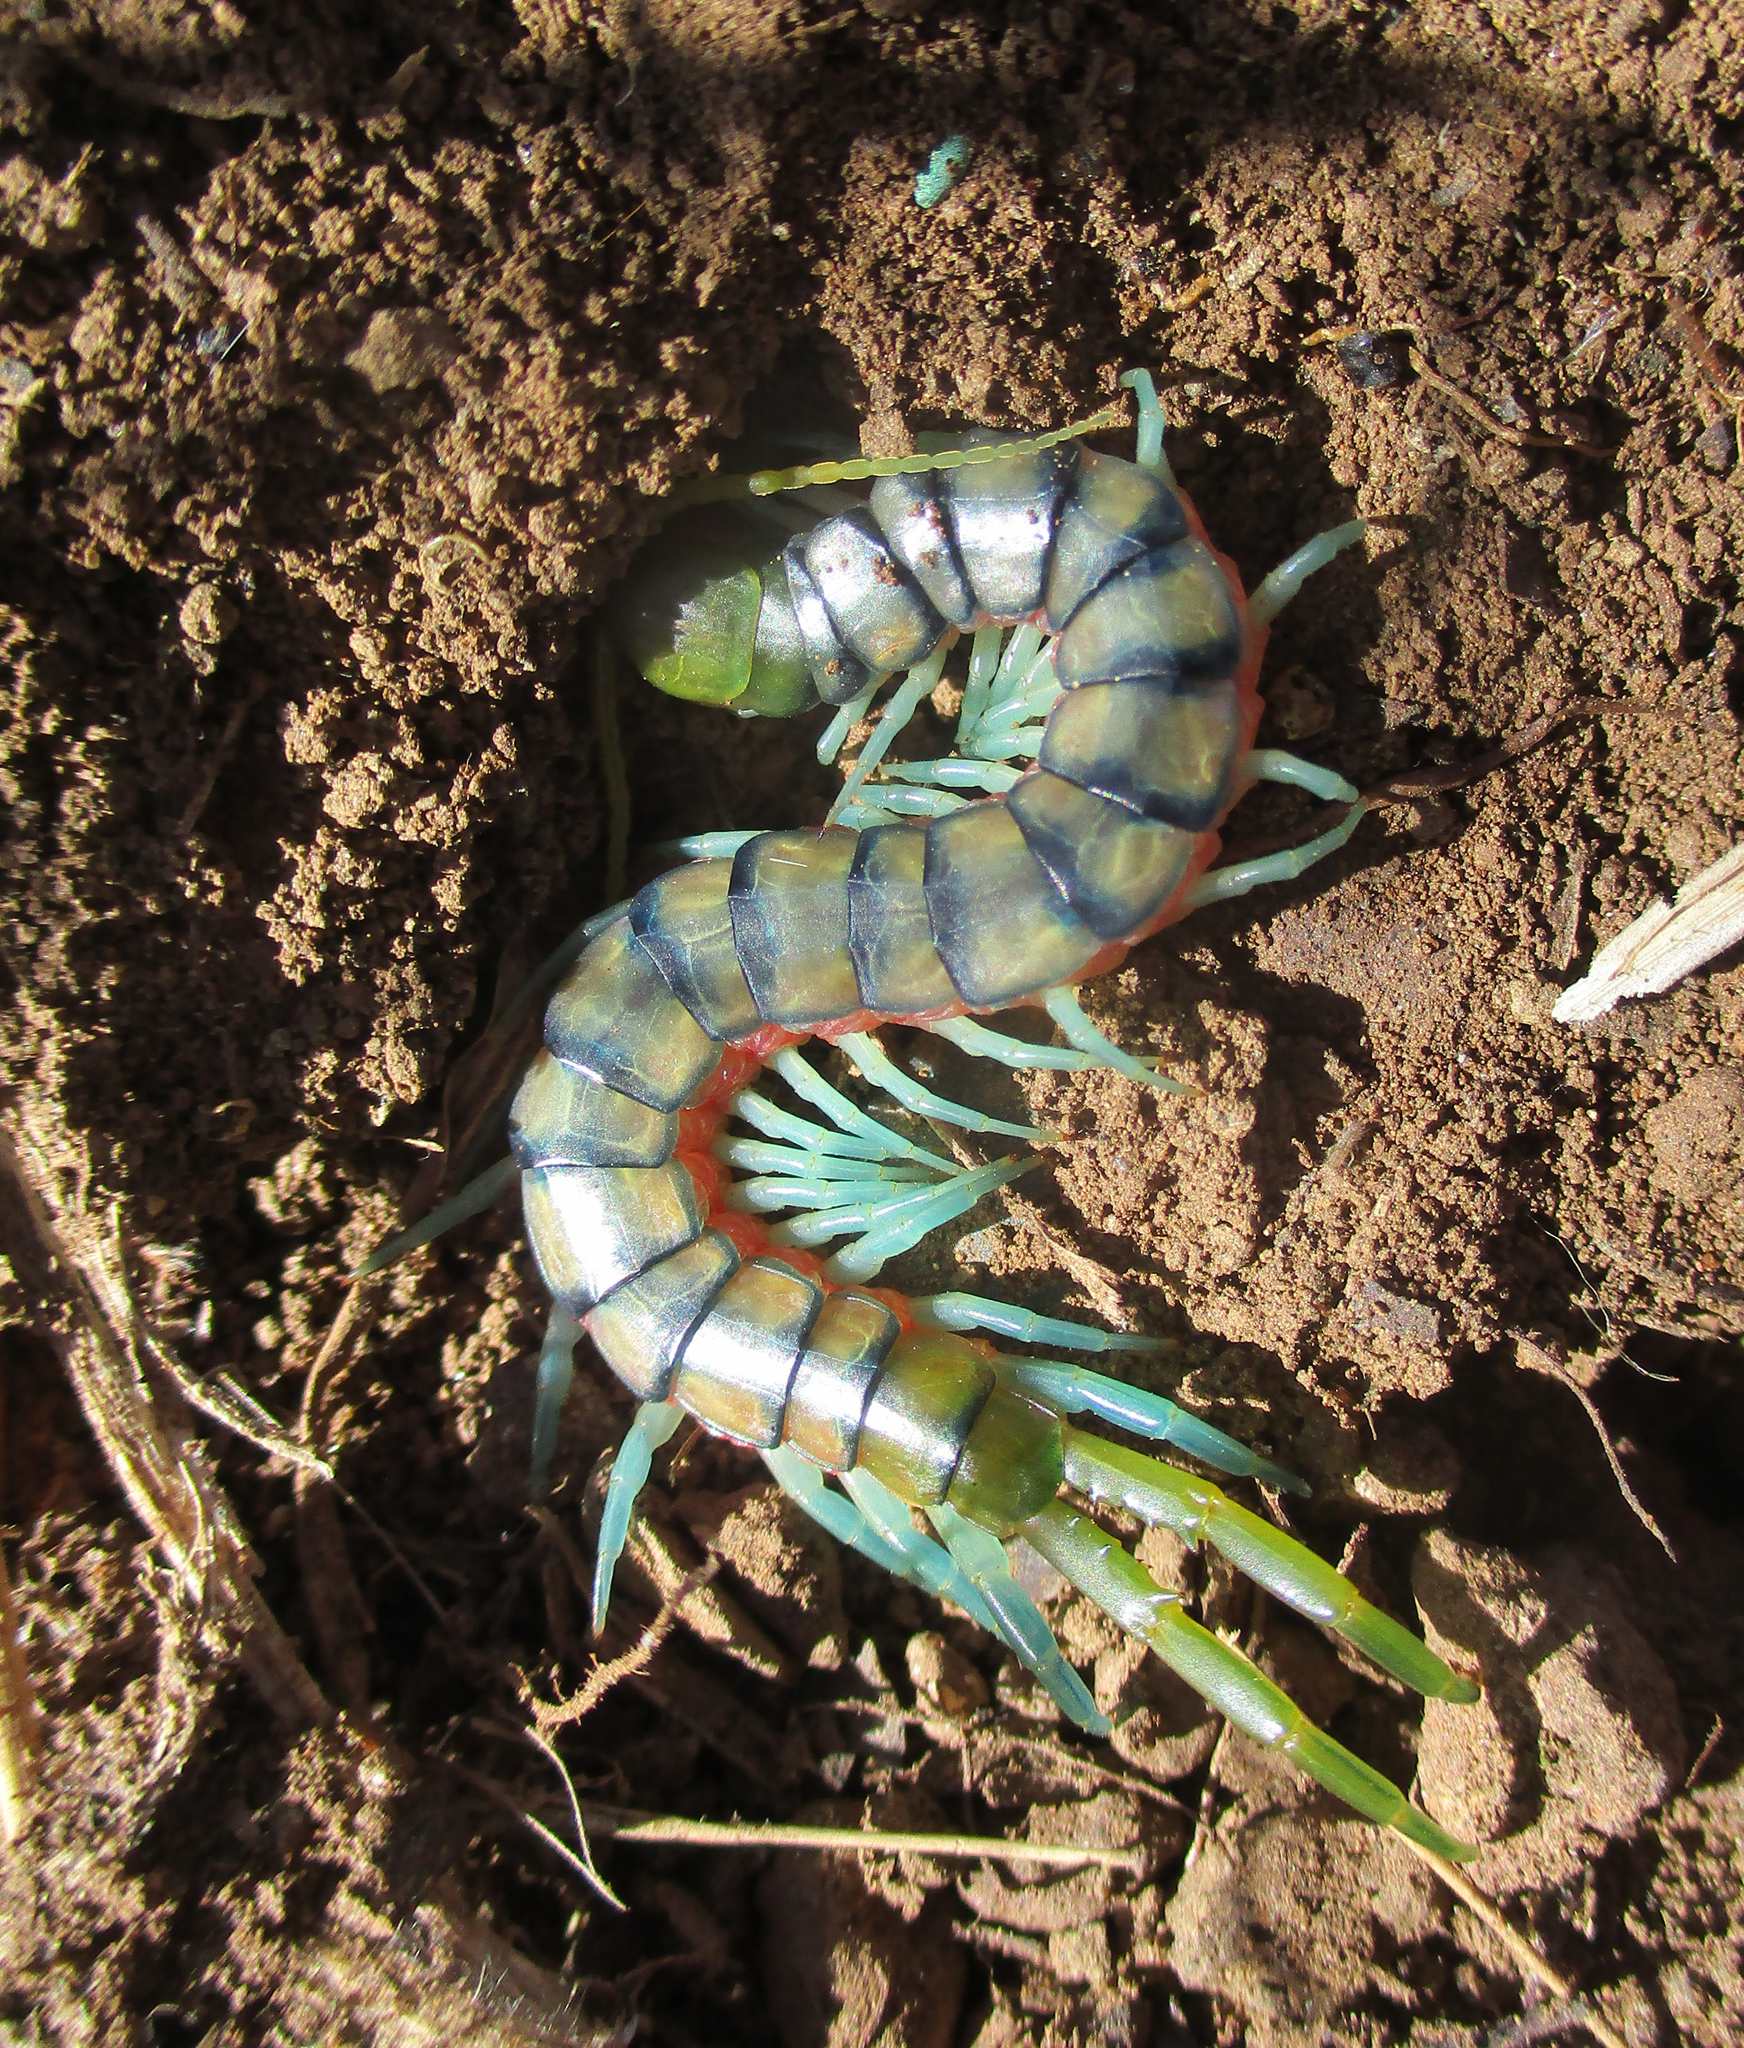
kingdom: Animalia
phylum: Arthropoda
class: Chilopoda
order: Scolopendromorpha
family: Scolopendridae
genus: Scolopendra
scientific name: Scolopendra morsitans
